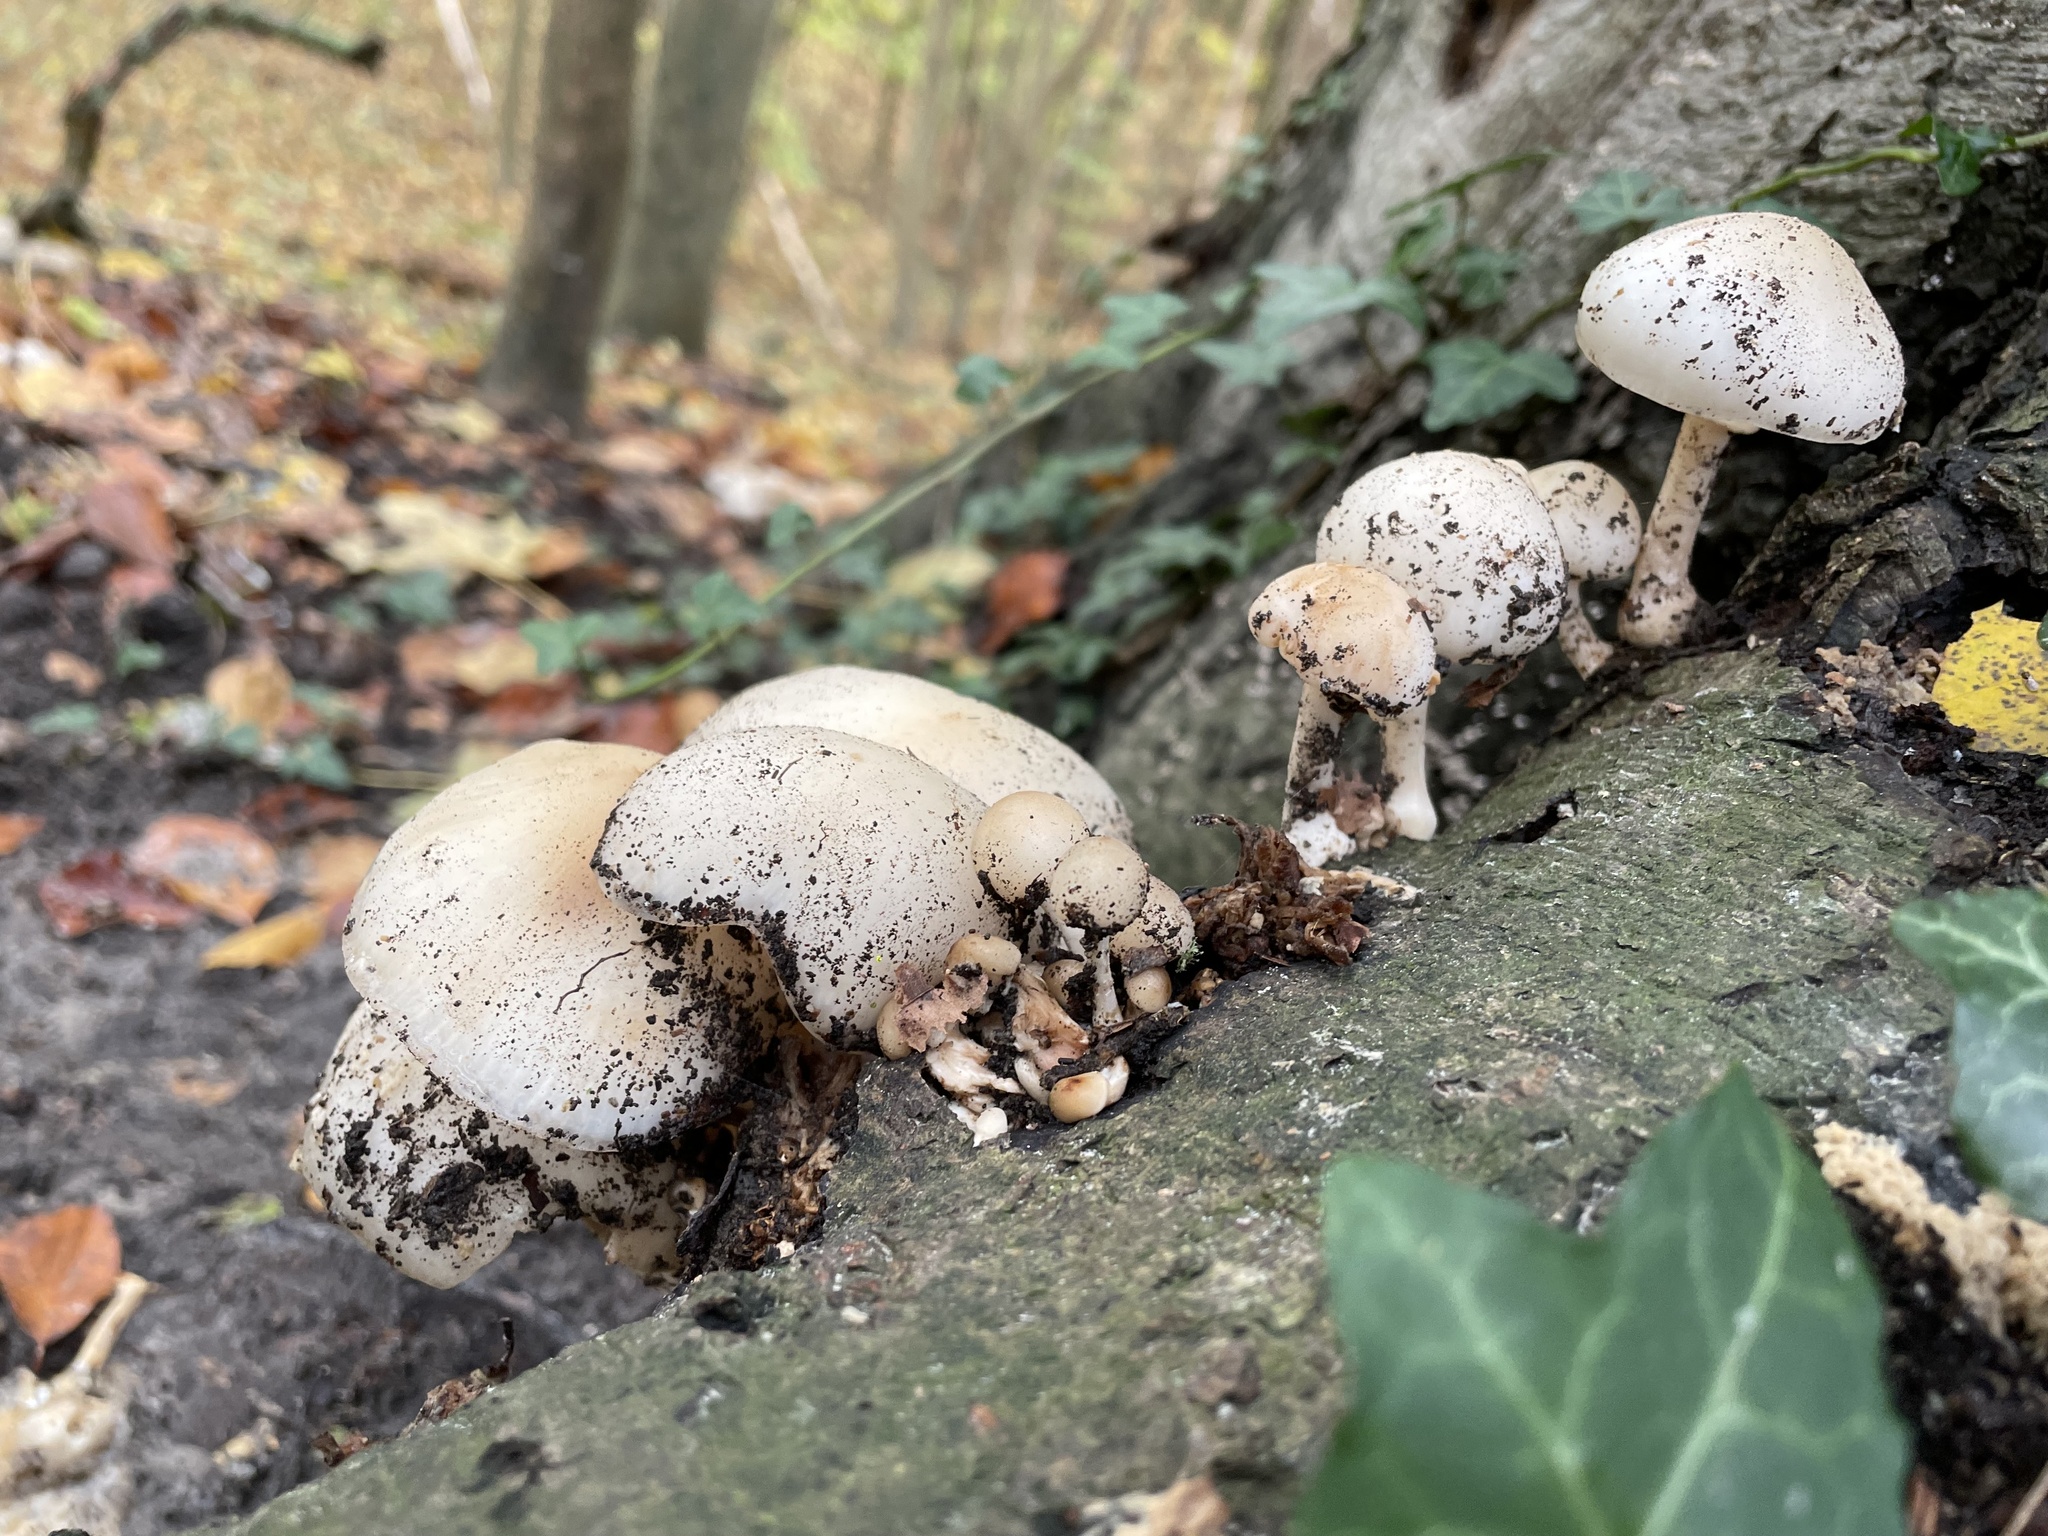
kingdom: Fungi
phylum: Basidiomycota
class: Agaricomycetes
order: Agaricales
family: Physalacriaceae
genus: Mucidula
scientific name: Mucidula mucida
